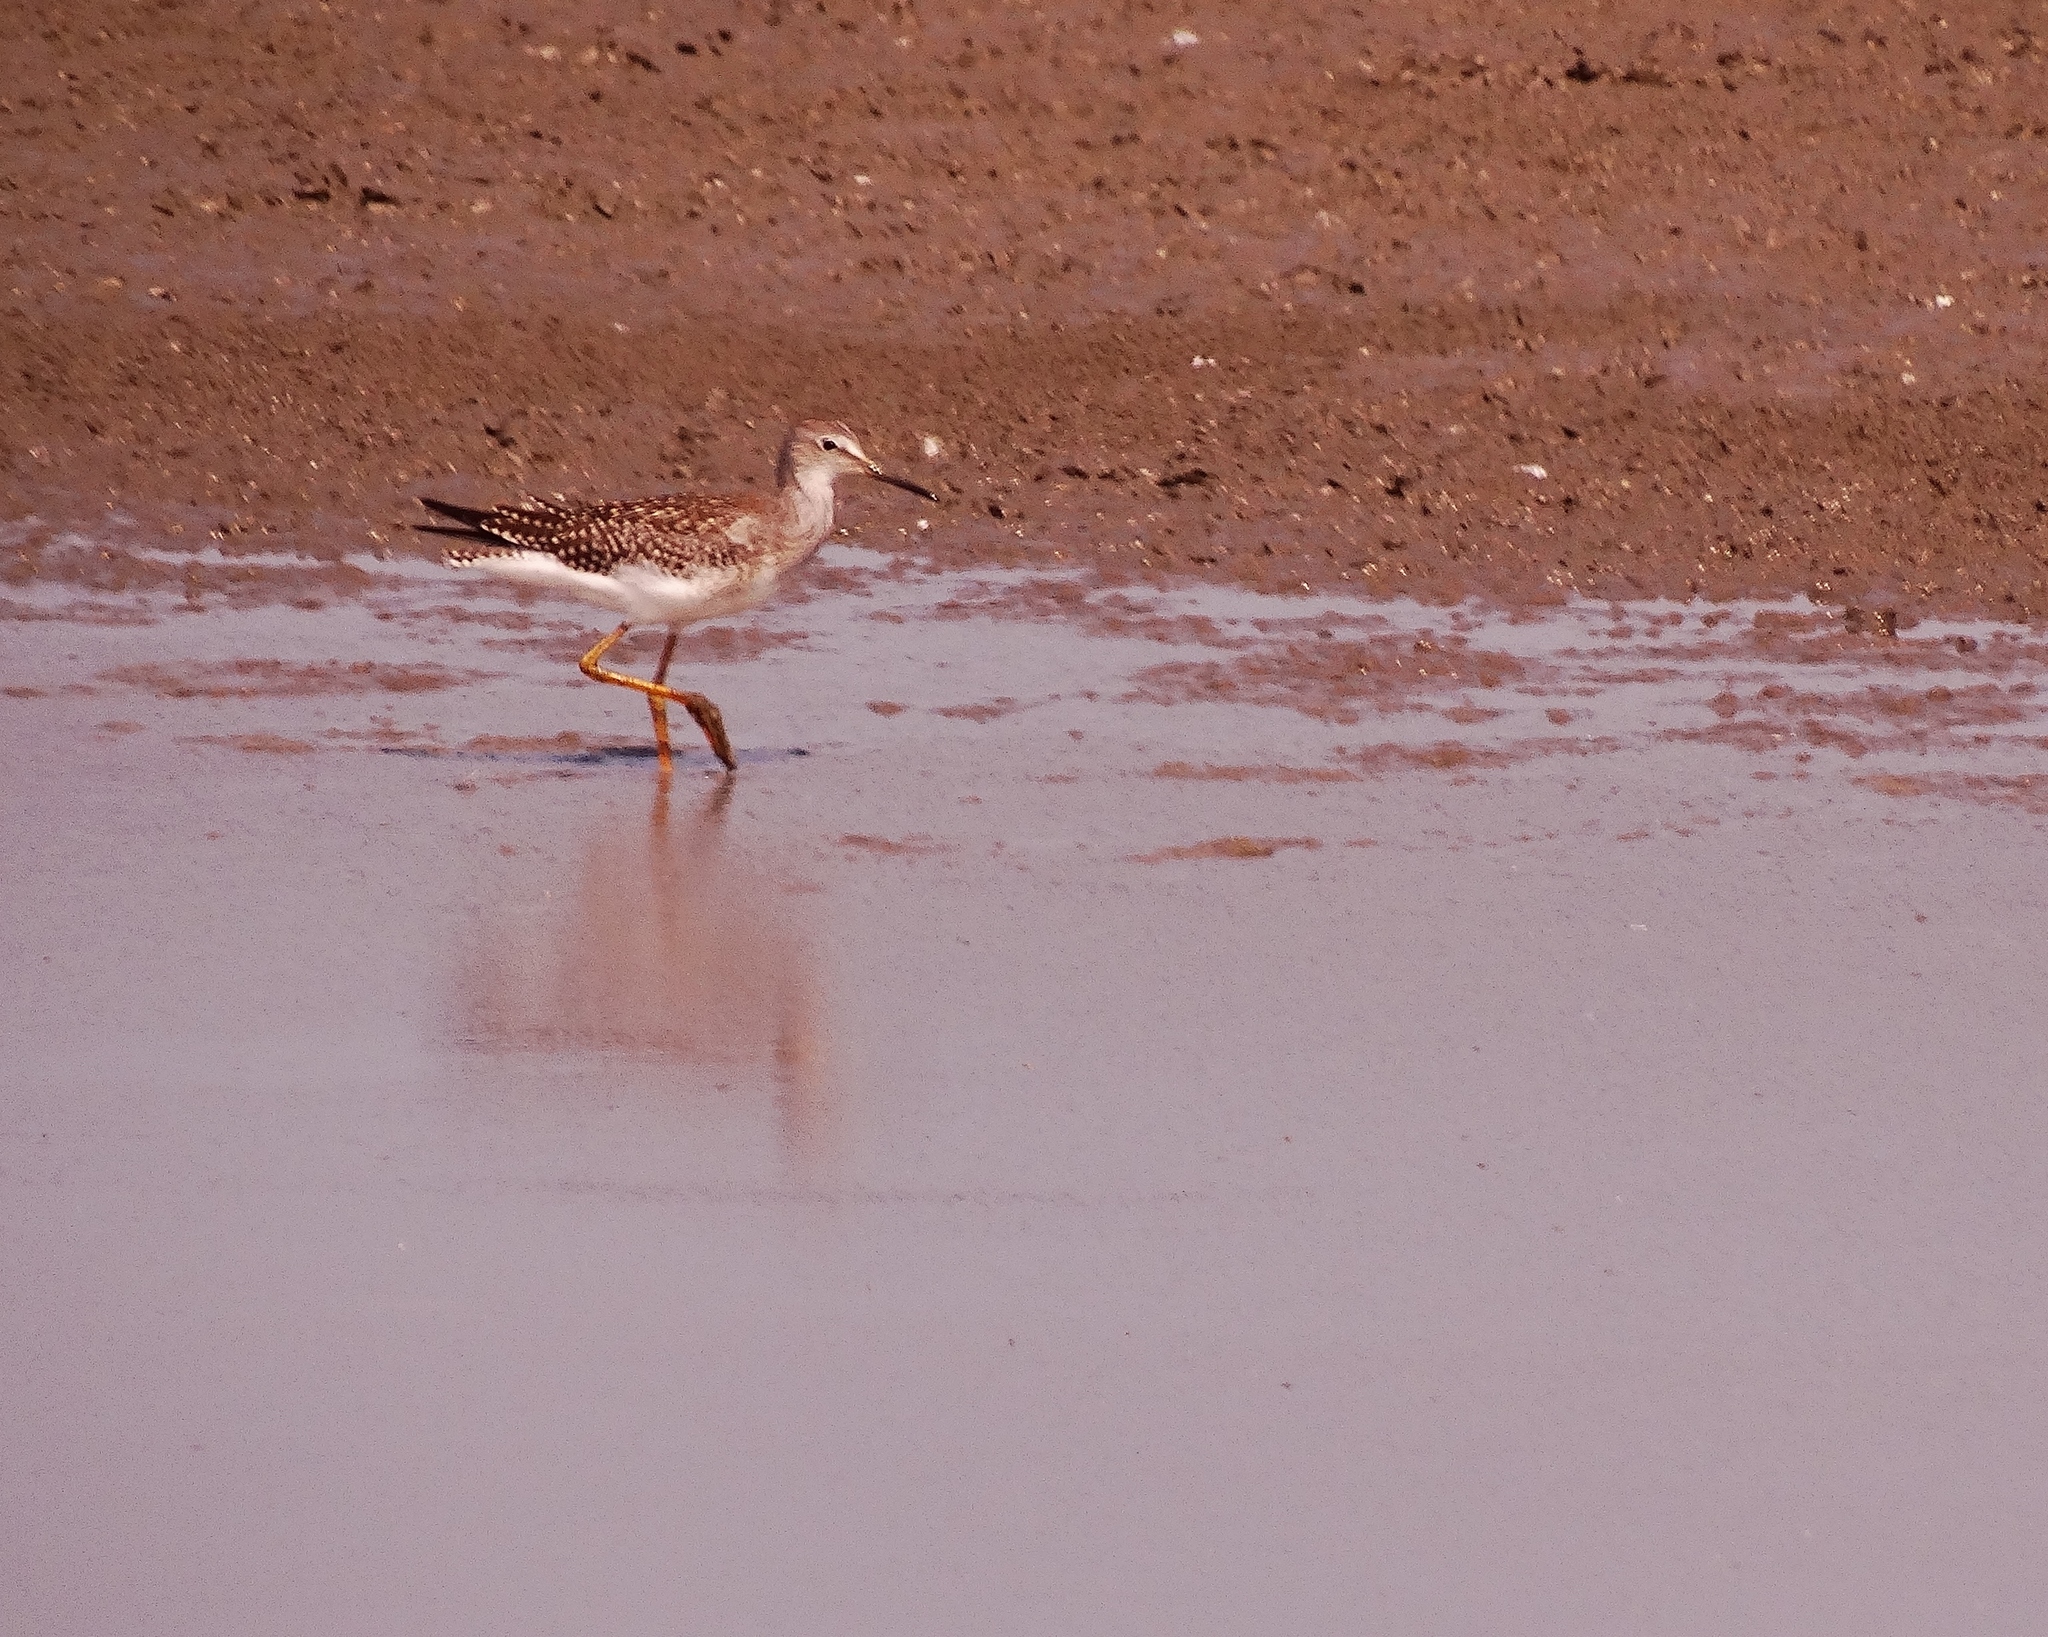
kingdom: Animalia
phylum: Chordata
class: Aves
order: Charadriiformes
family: Scolopacidae
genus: Tringa
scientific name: Tringa flavipes
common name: Lesser yellowlegs
